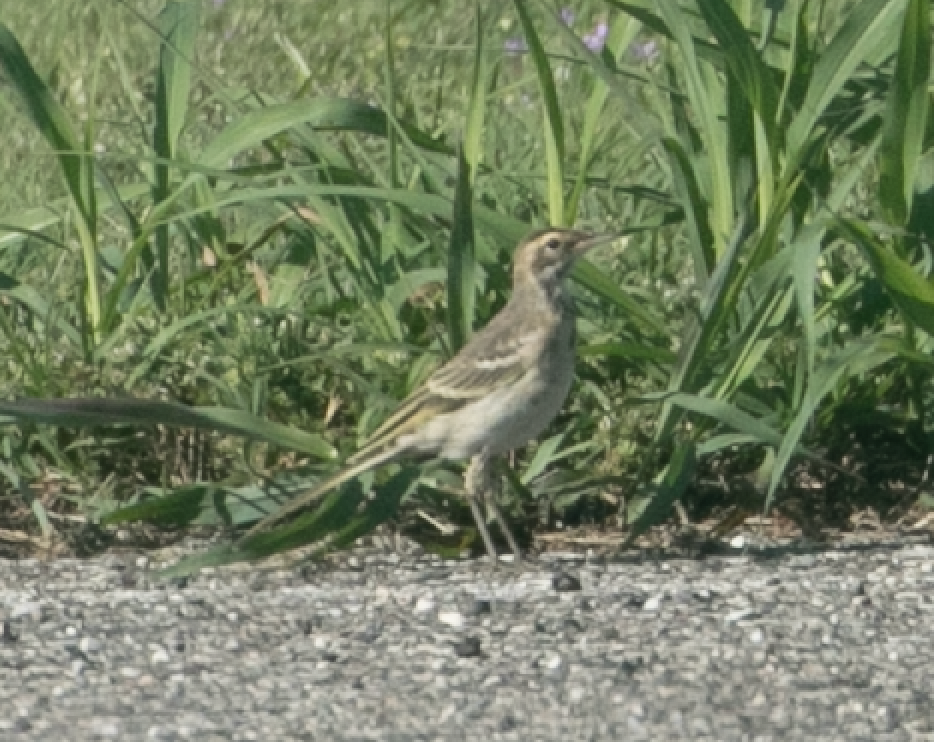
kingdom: Animalia
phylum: Chordata
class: Aves
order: Passeriformes
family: Motacillidae
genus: Motacilla
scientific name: Motacilla flava
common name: Western yellow wagtail
